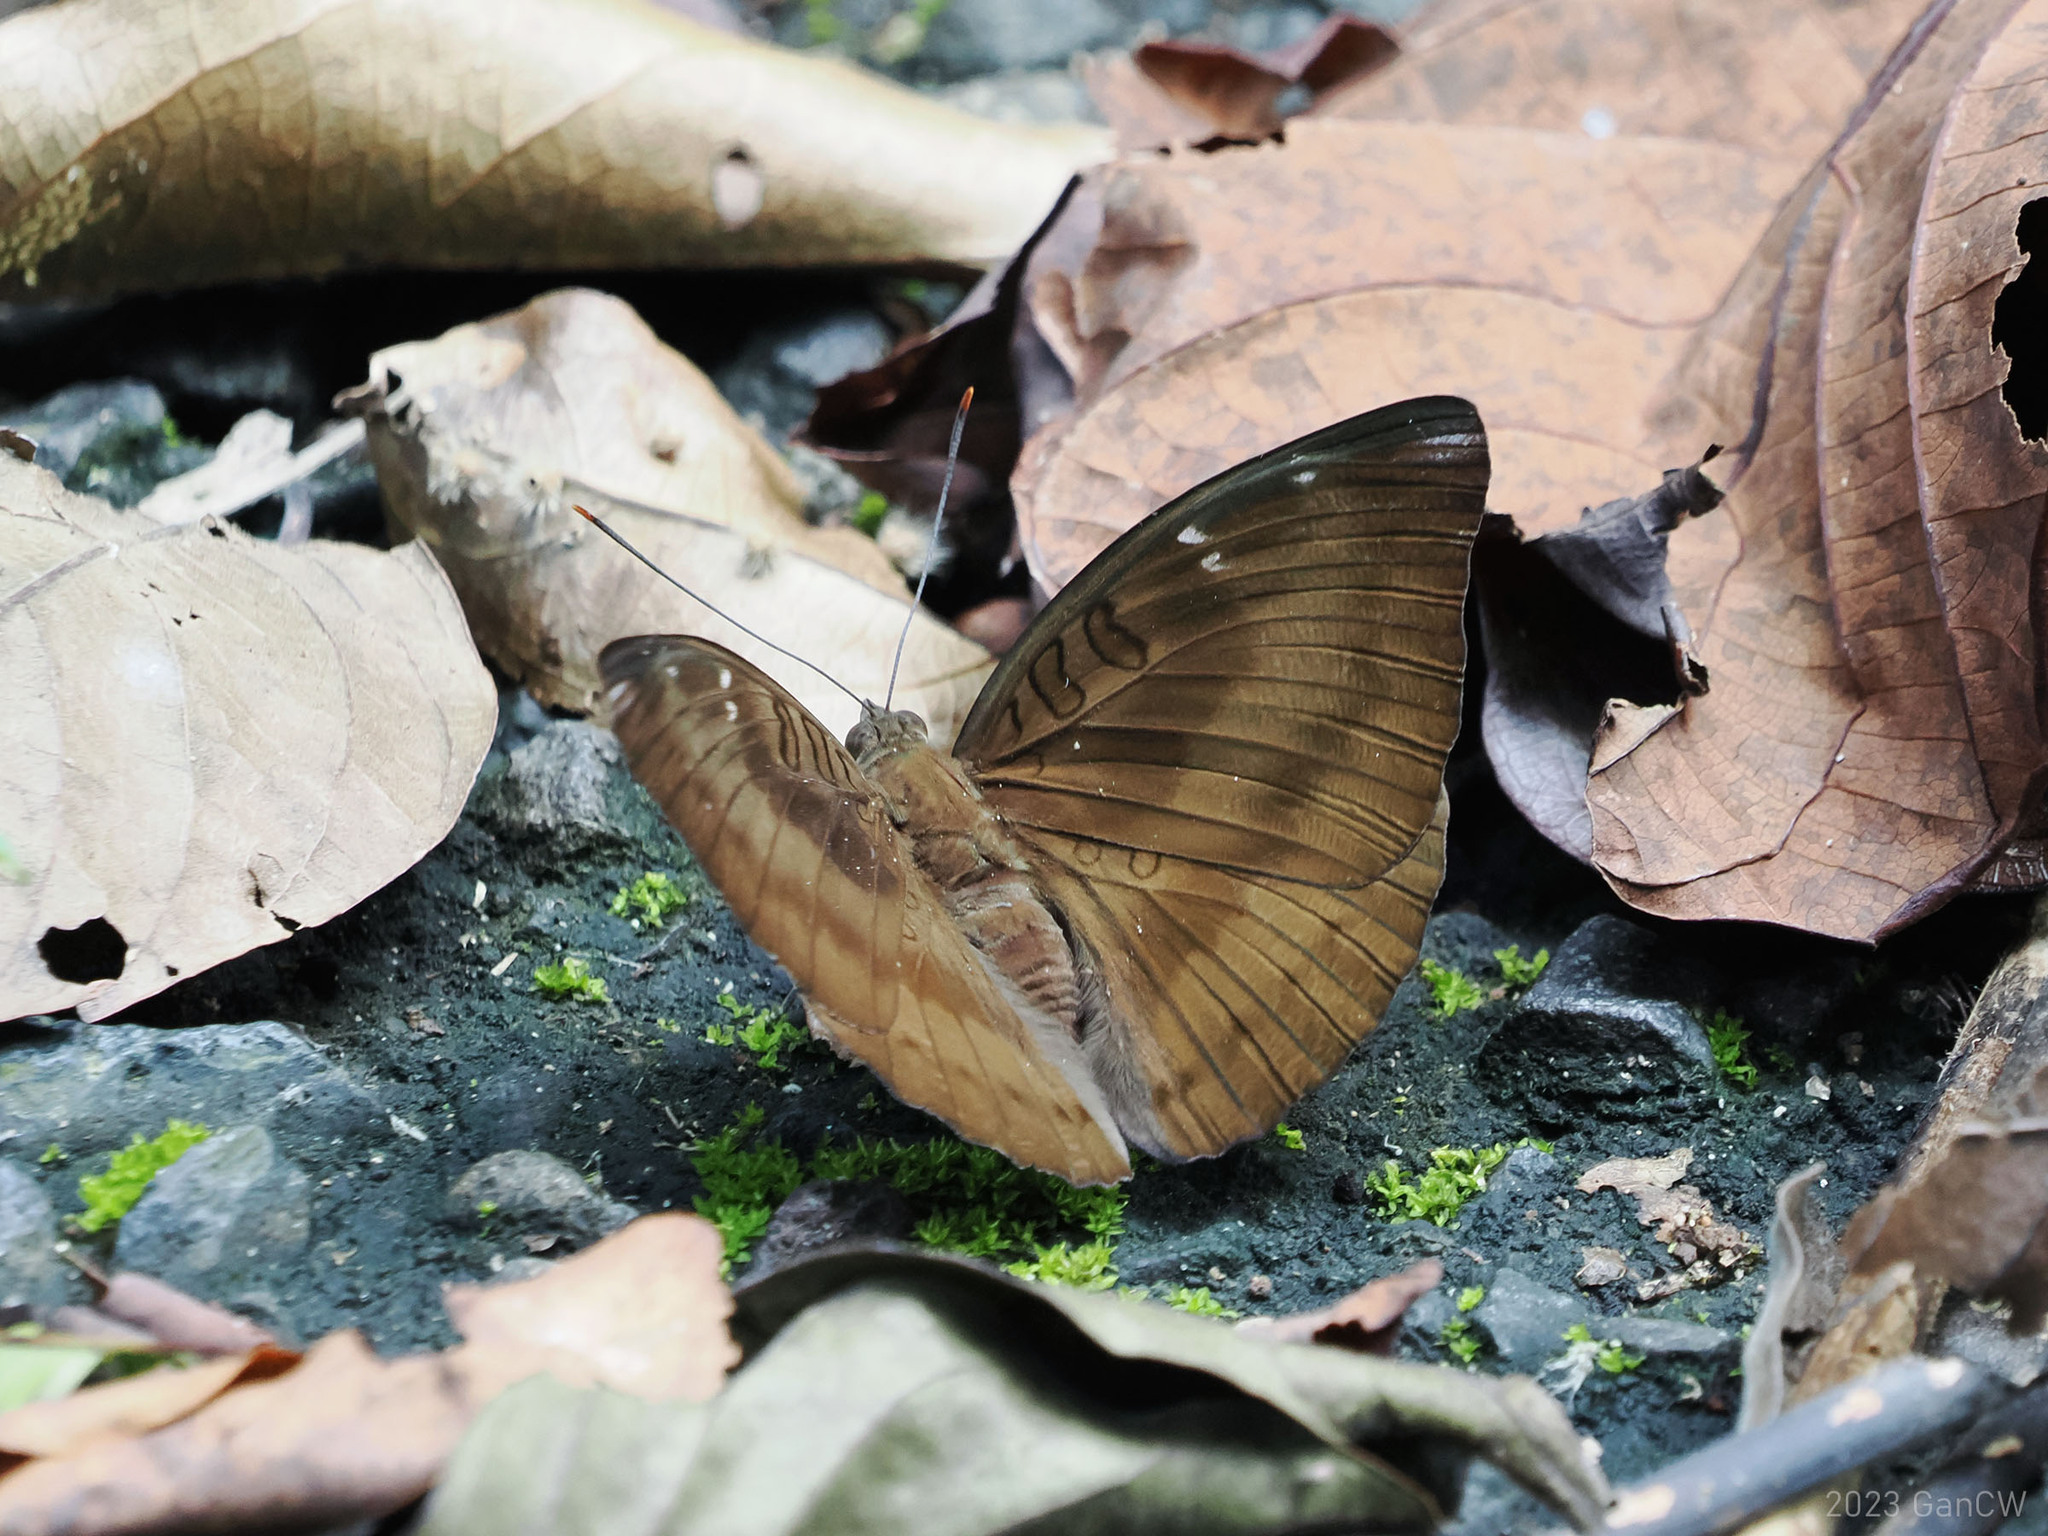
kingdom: Animalia
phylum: Arthropoda
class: Insecta
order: Lepidoptera
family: Nymphalidae
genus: Euthalia
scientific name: Euthalia alpheda
